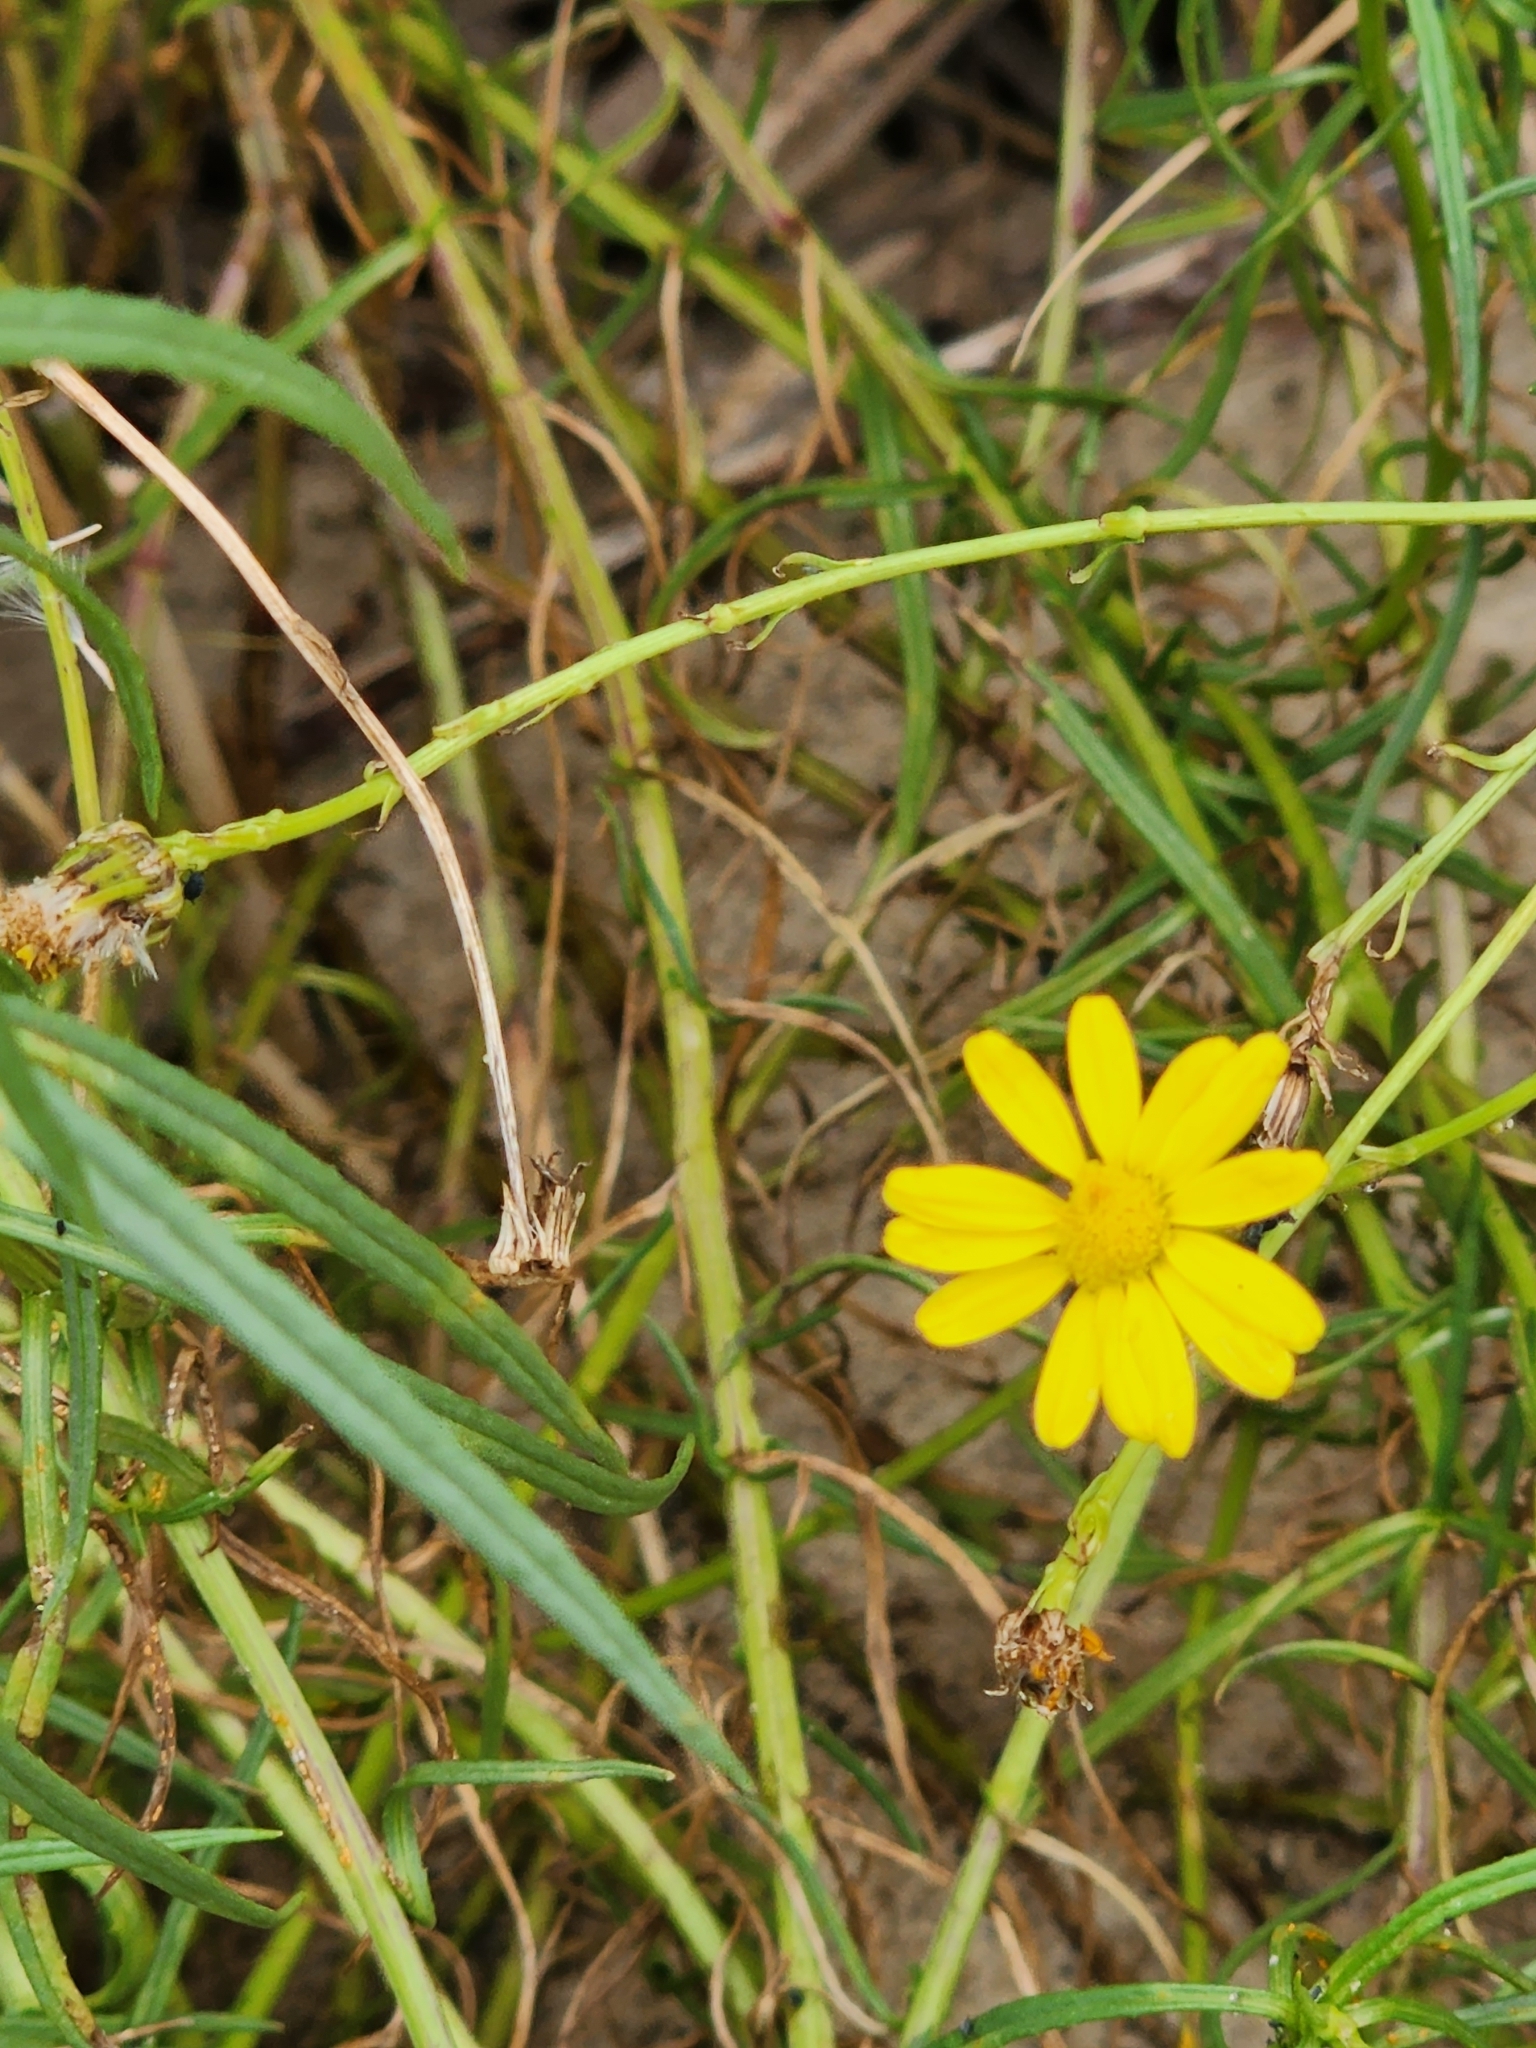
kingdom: Plantae
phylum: Tracheophyta
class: Magnoliopsida
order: Asterales
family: Asteraceae
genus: Senecio
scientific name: Senecio inaequidens
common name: Narrow-leaved ragwort
